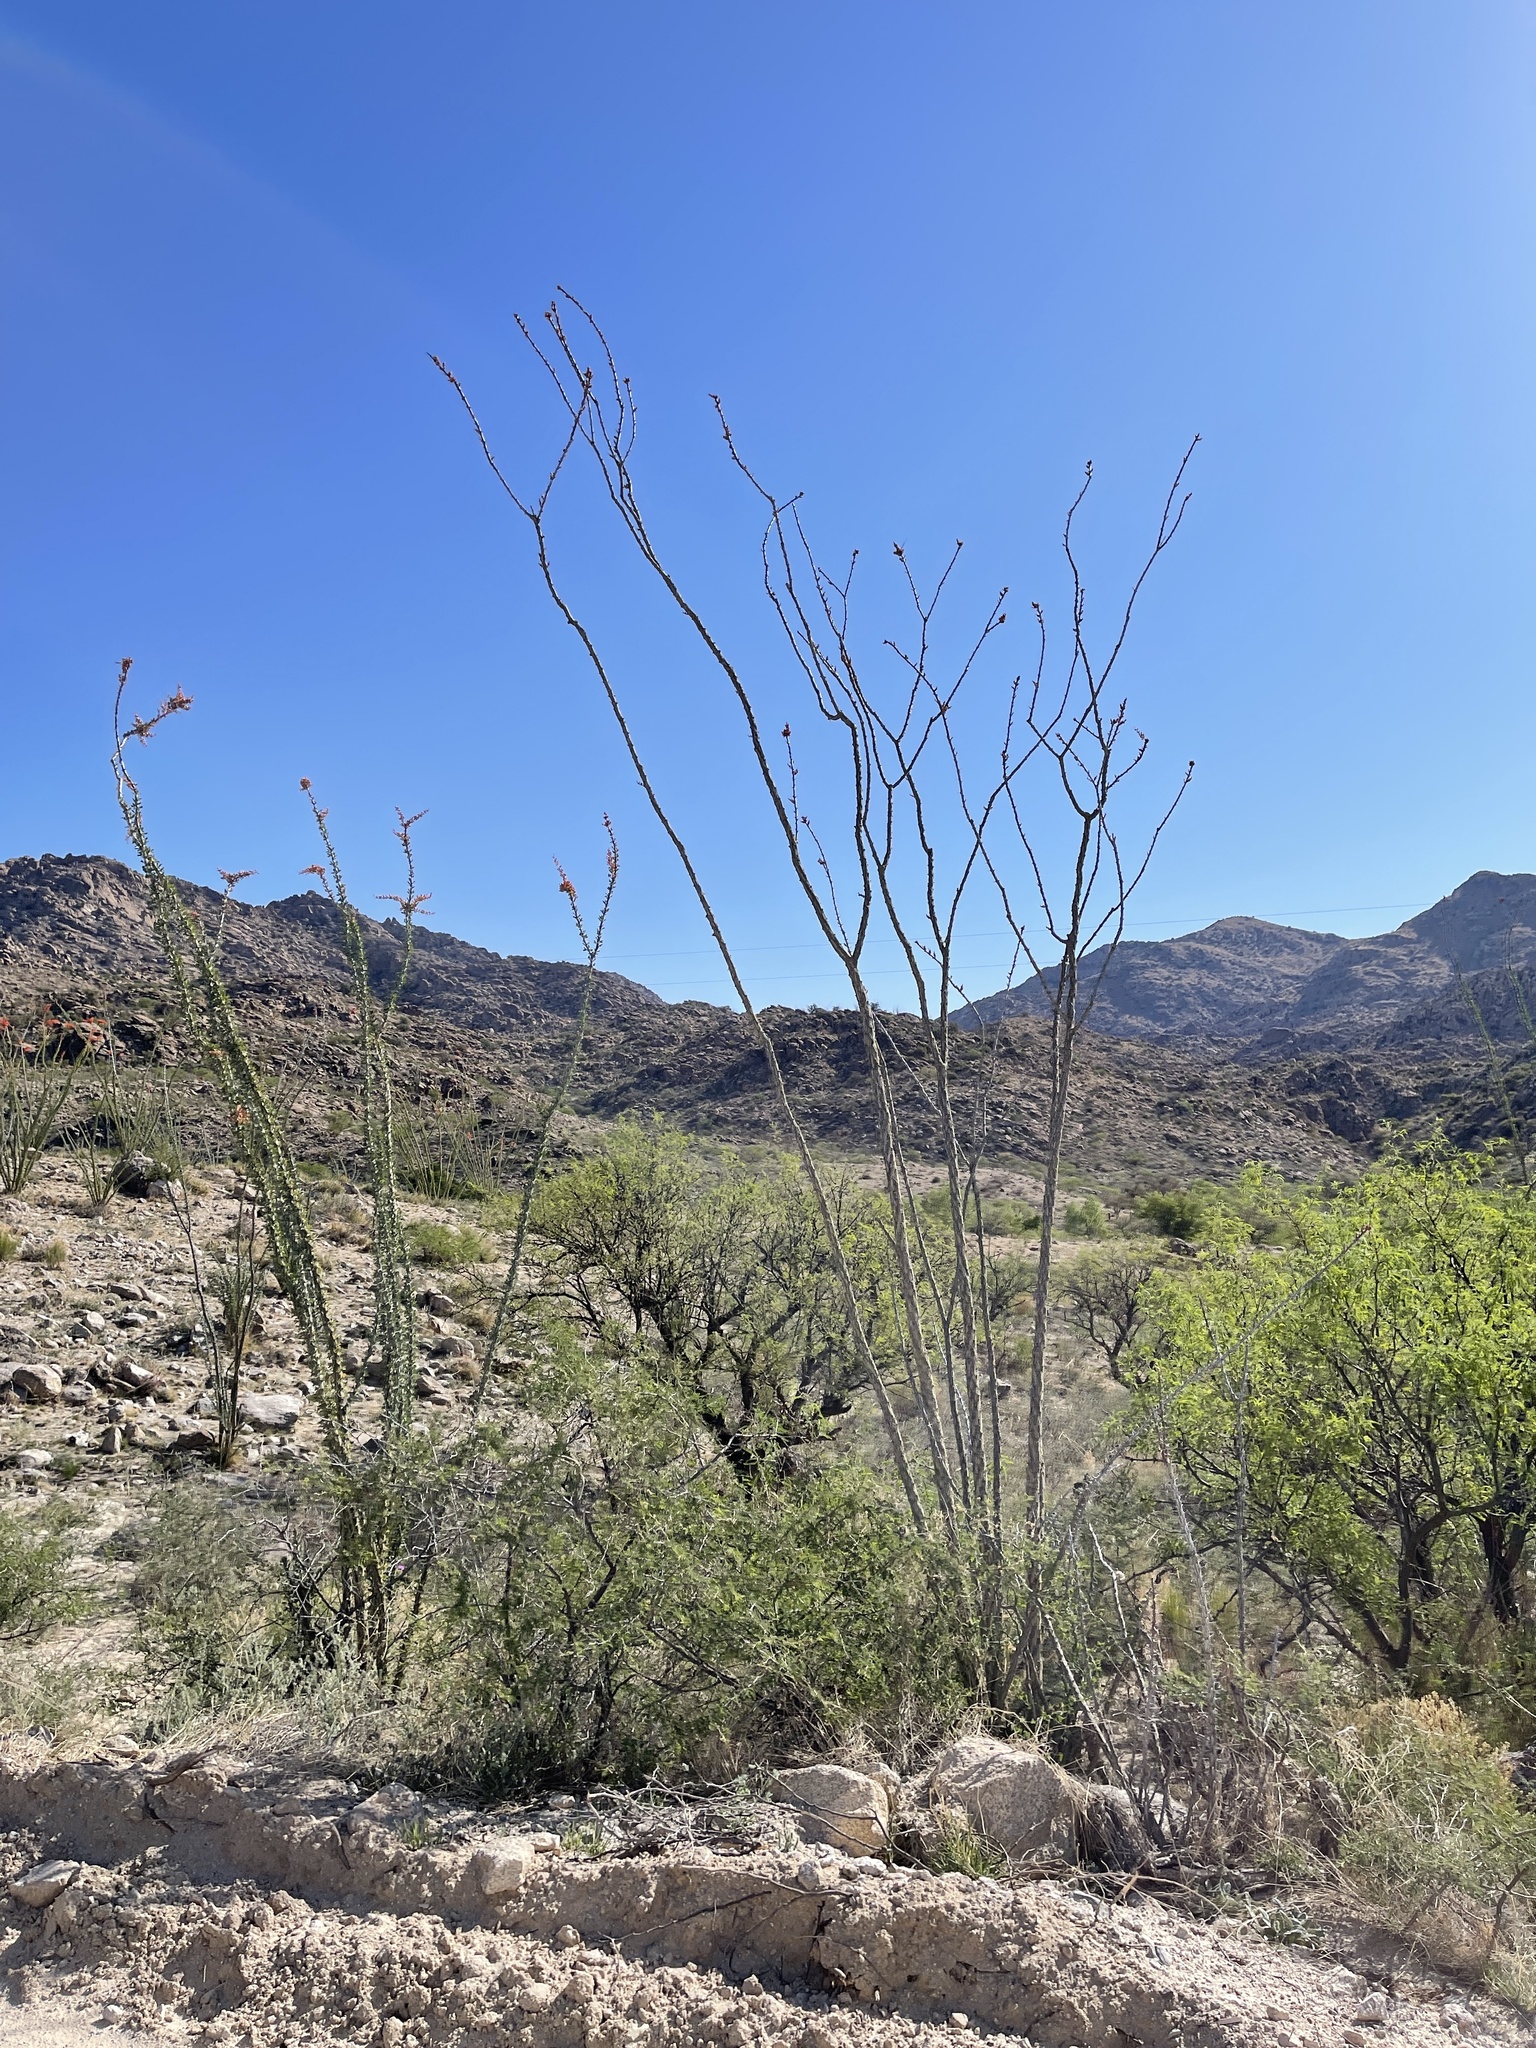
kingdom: Plantae
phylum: Tracheophyta
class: Magnoliopsida
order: Ericales
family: Fouquieriaceae
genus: Fouquieria
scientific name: Fouquieria splendens
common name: Vine-cactus
